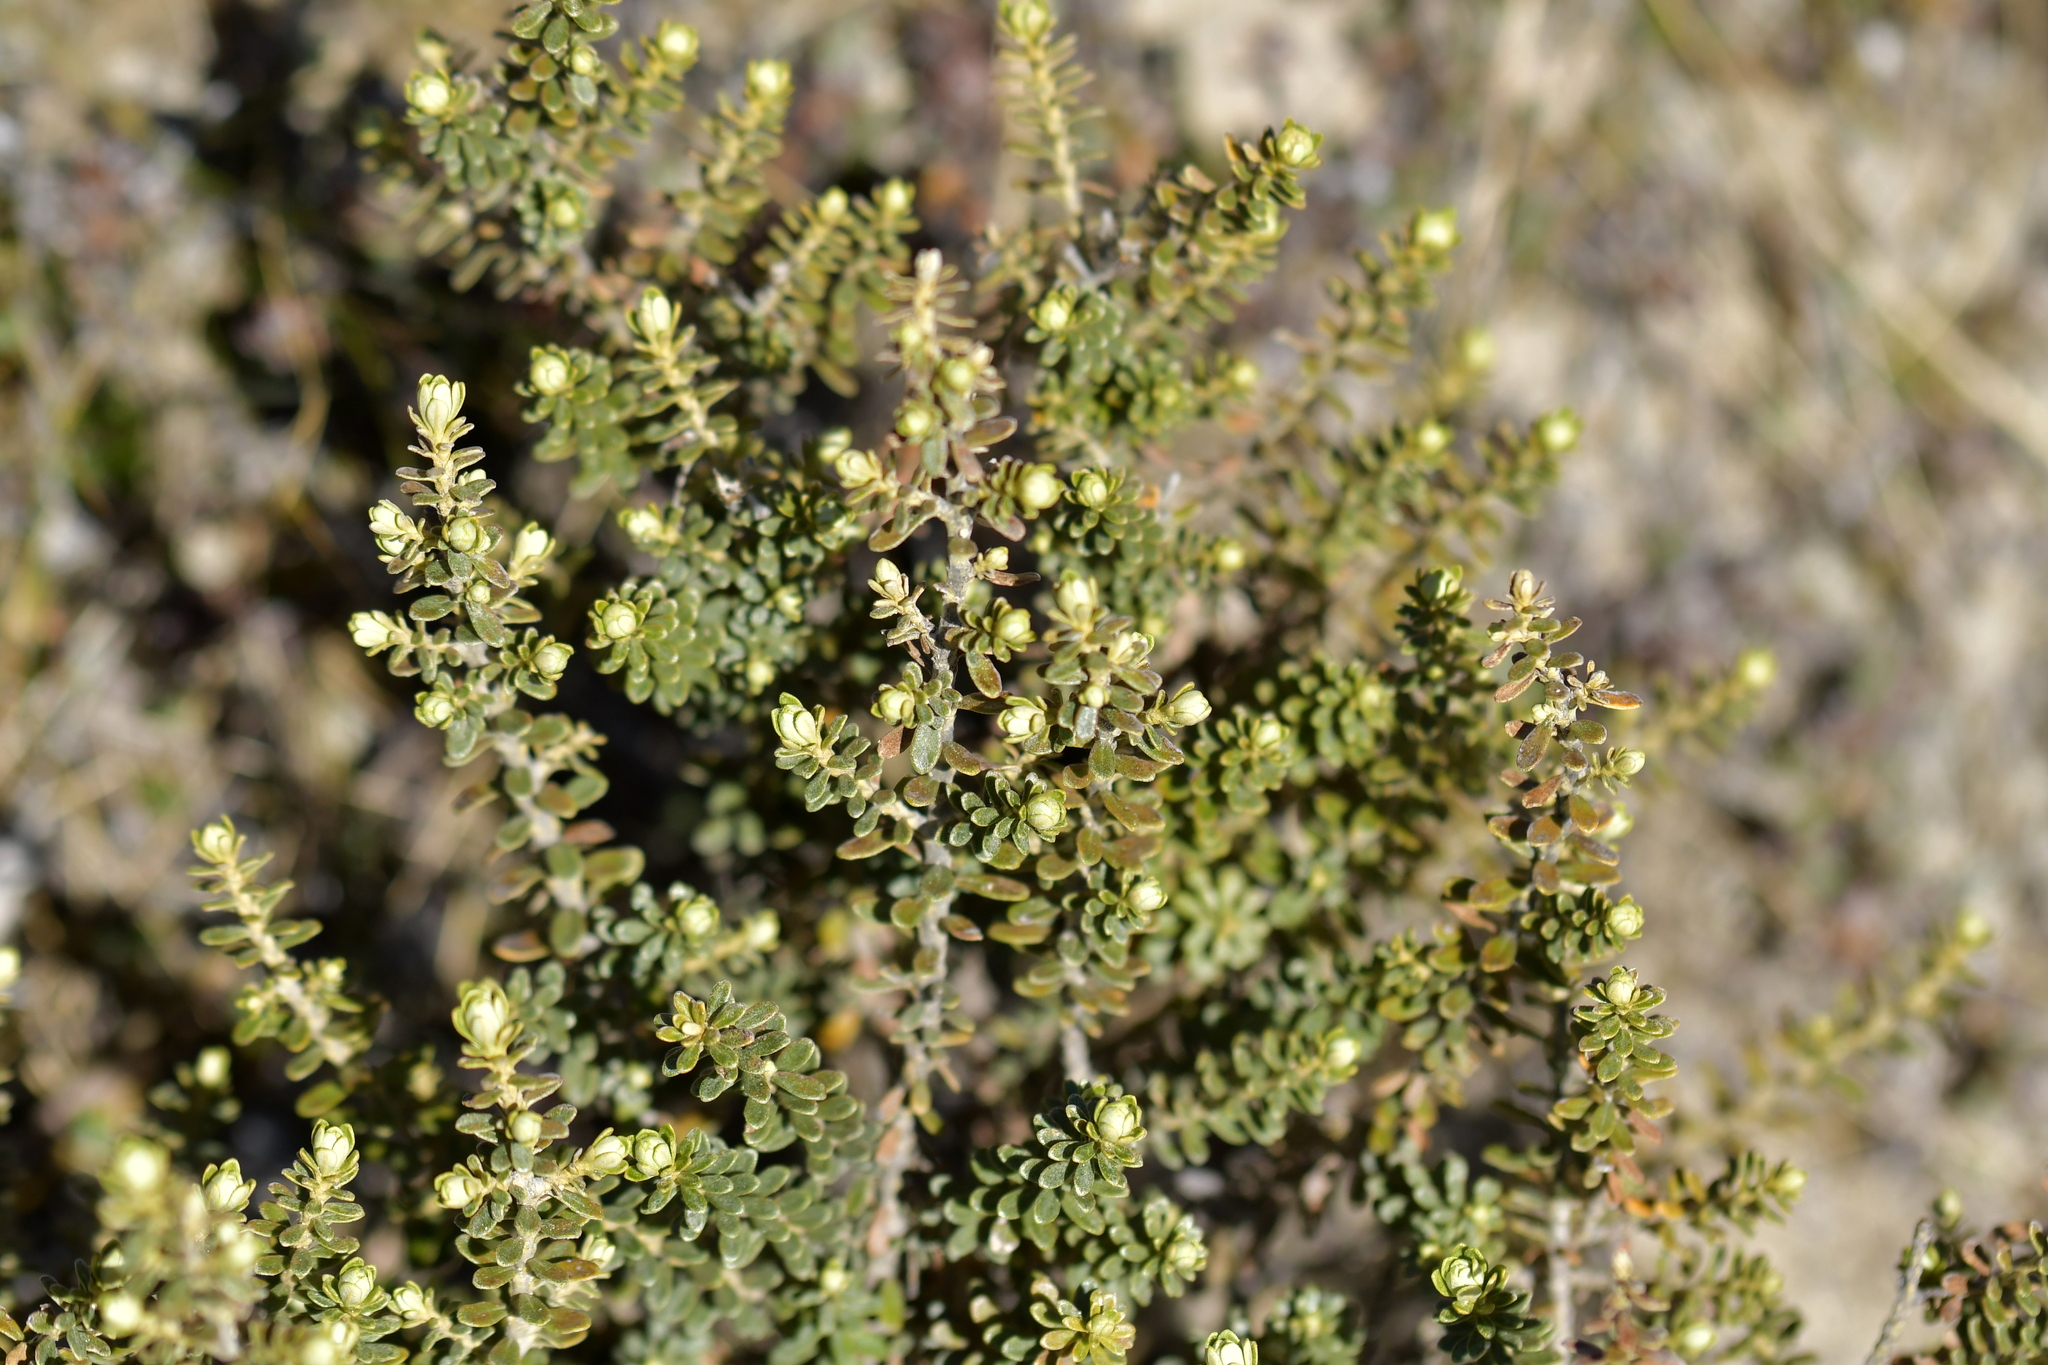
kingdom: Plantae
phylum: Tracheophyta
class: Magnoliopsida
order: Asterales
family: Asteraceae
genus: Ozothamnus
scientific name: Ozothamnus leptophyllus
